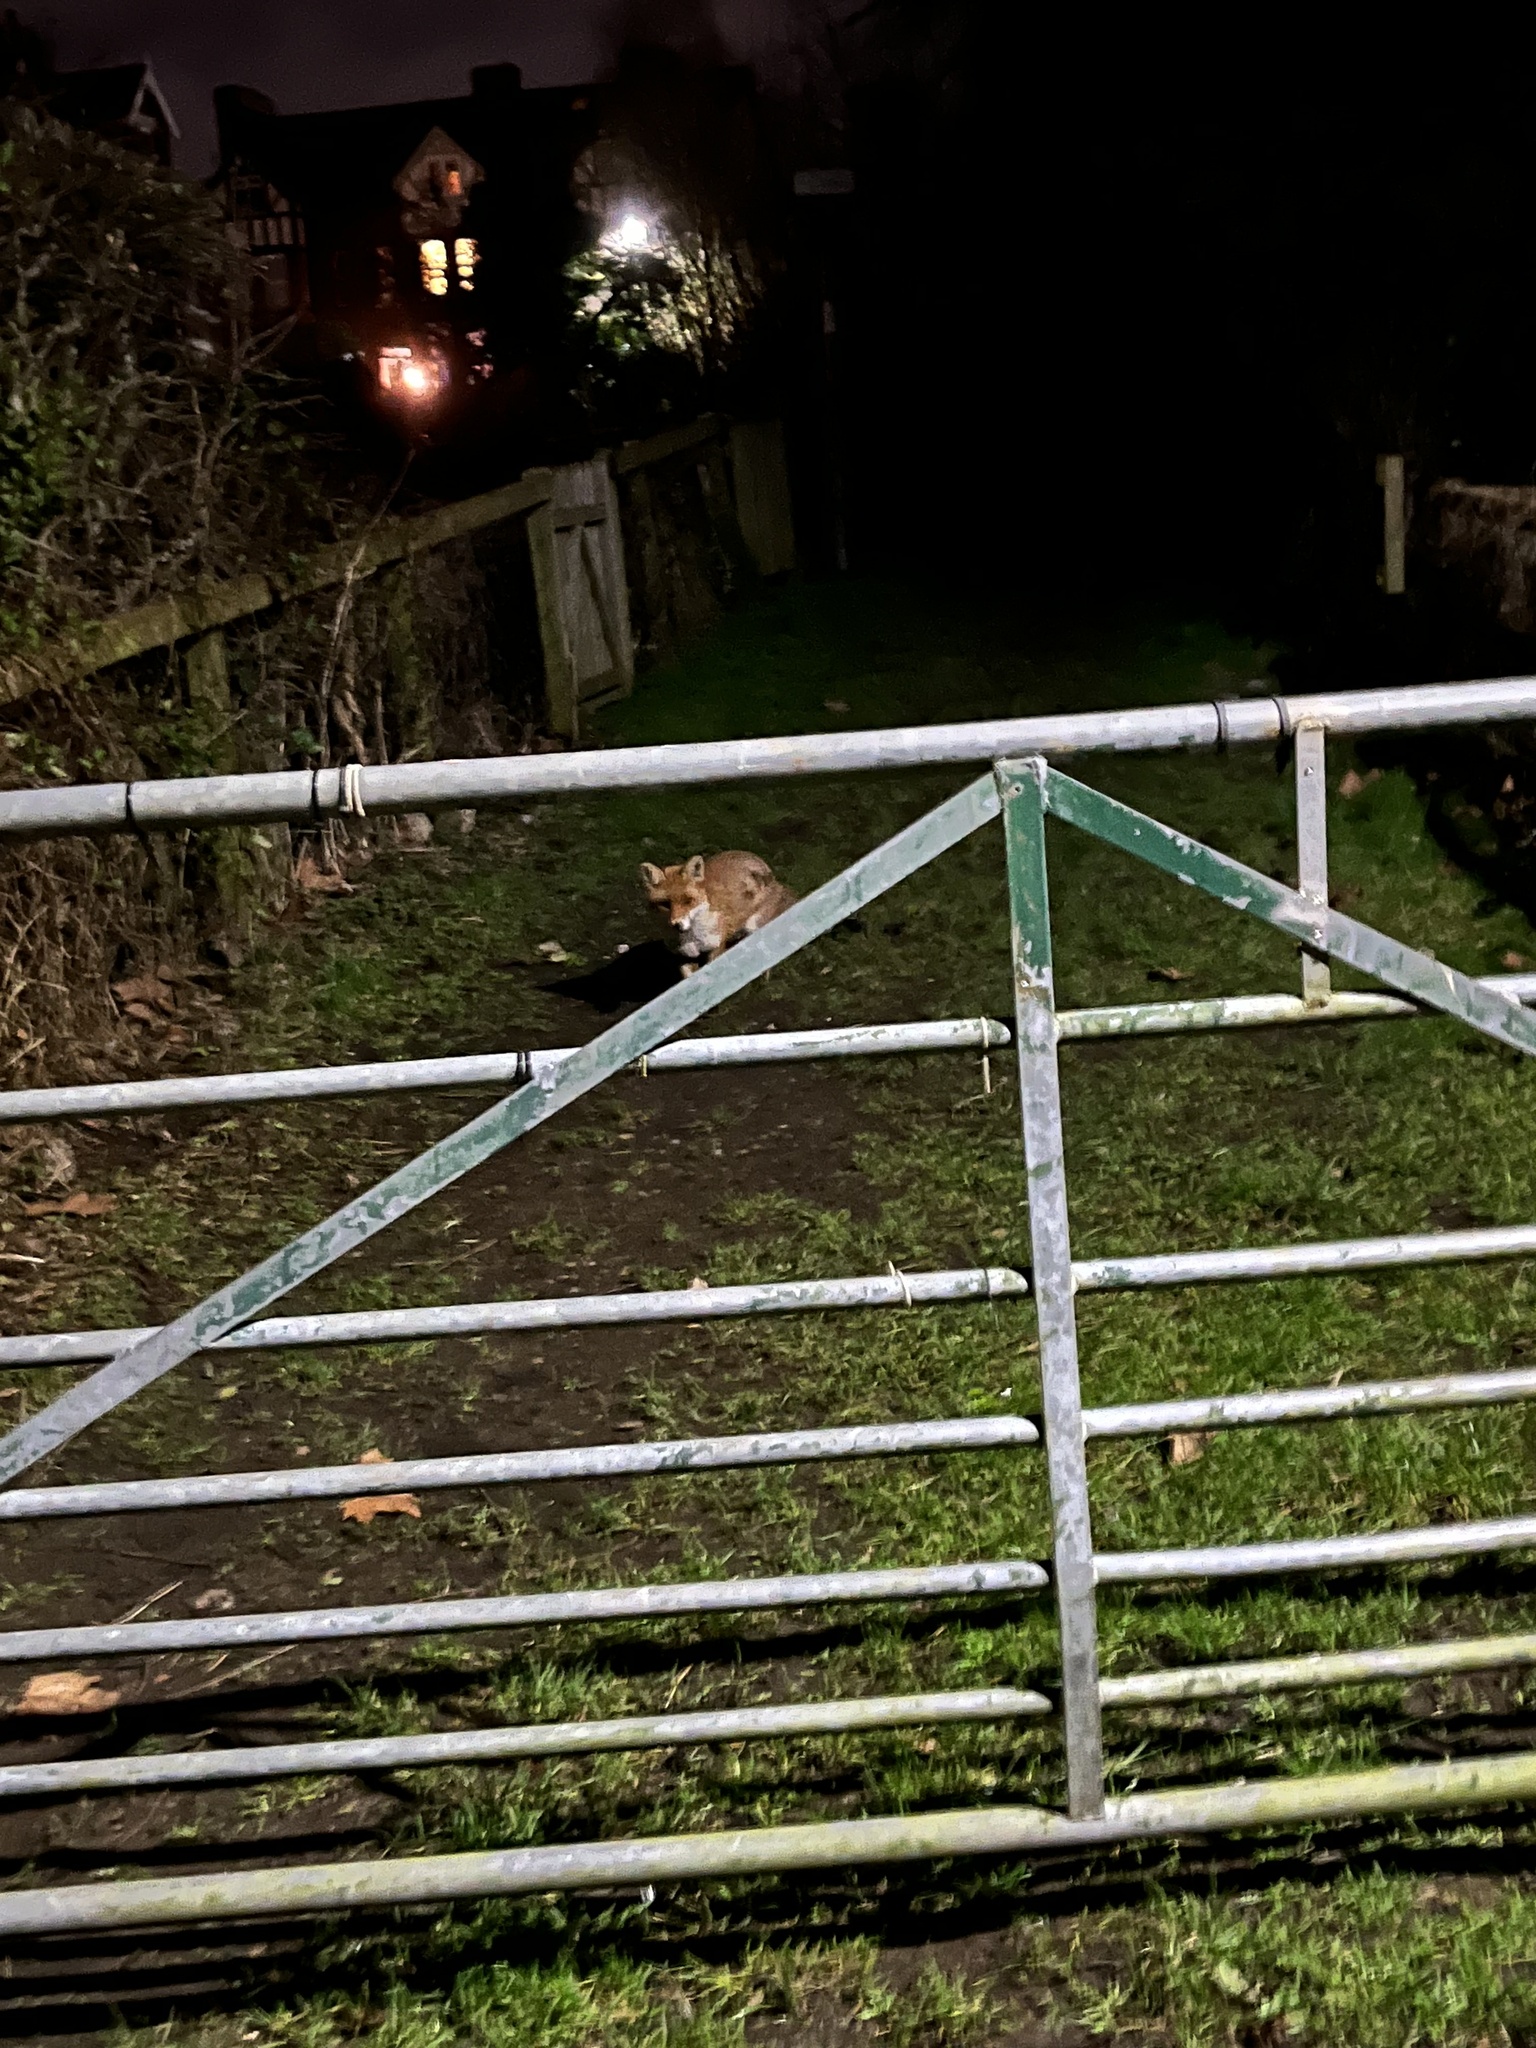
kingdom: Animalia
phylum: Chordata
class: Mammalia
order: Carnivora
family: Canidae
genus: Vulpes
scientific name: Vulpes vulpes
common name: Red fox
